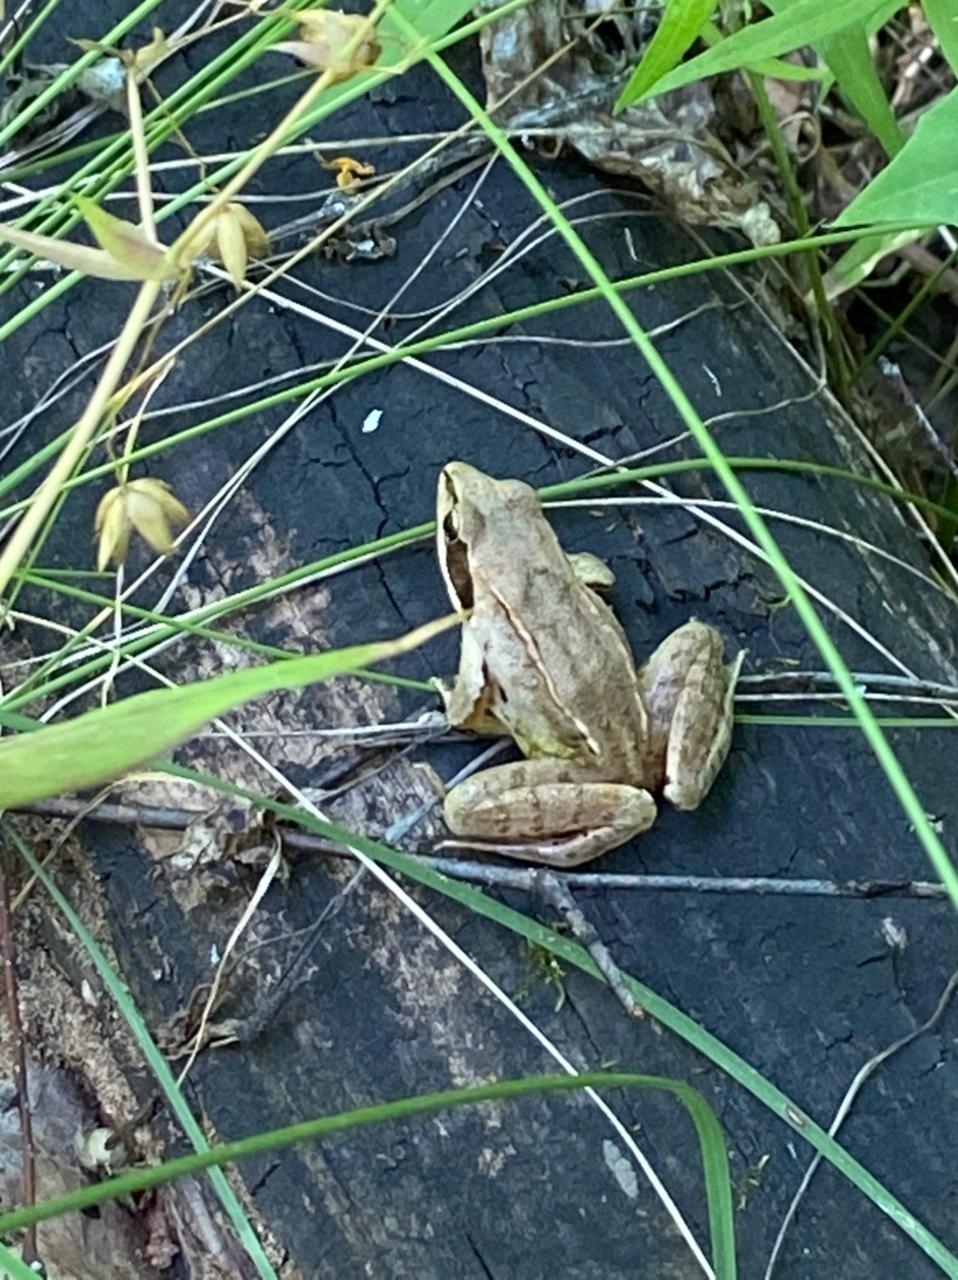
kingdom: Animalia
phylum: Chordata
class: Amphibia
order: Anura
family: Ranidae
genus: Rana
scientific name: Rana arvalis
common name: Moor frog
